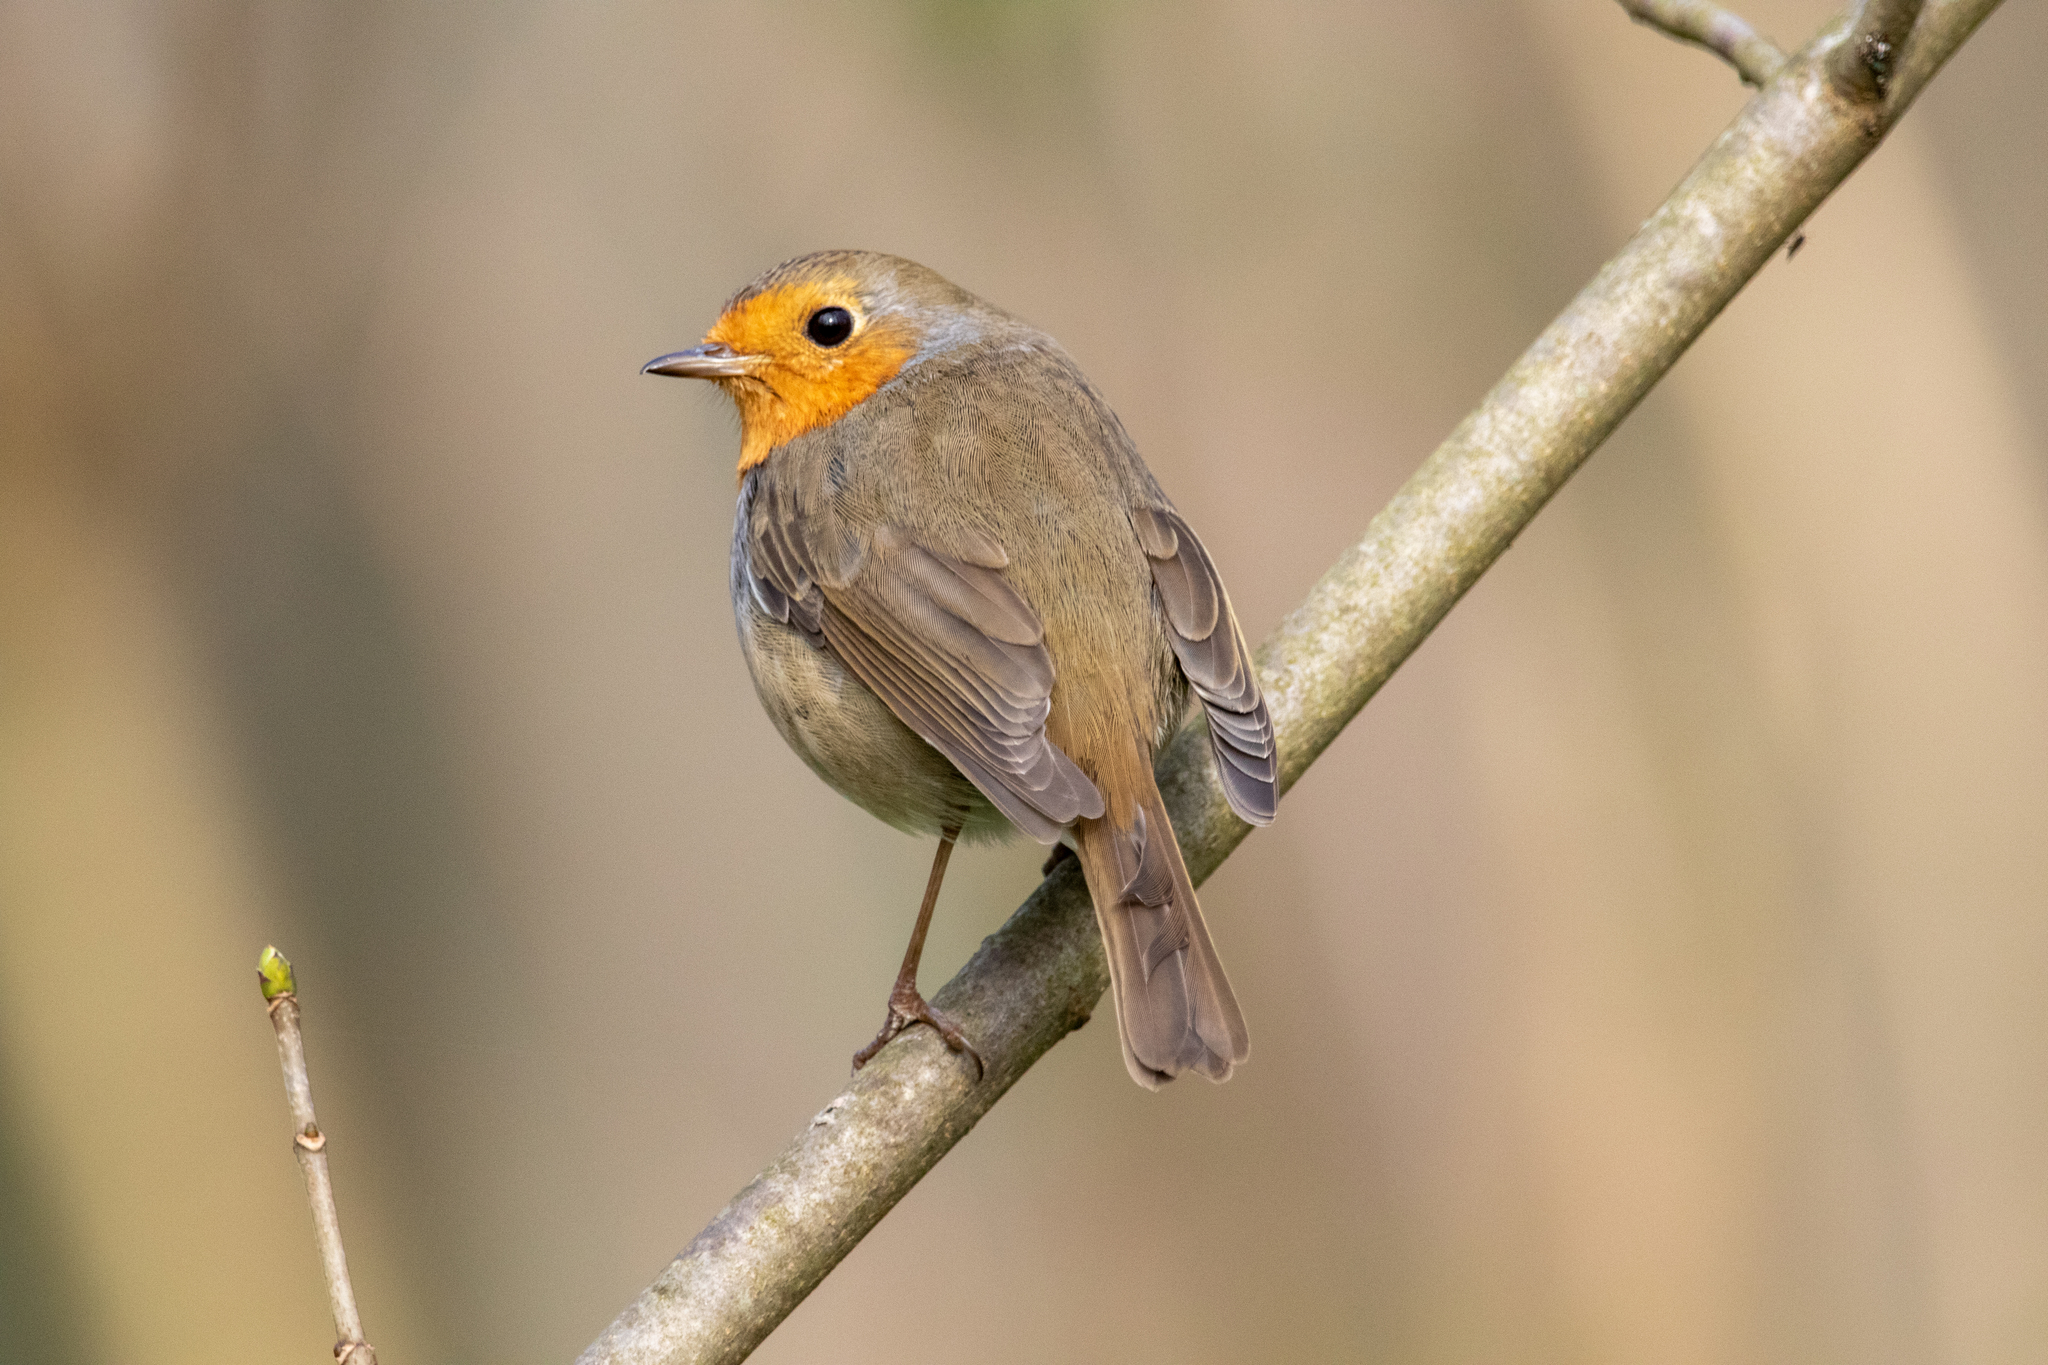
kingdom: Animalia
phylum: Chordata
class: Aves
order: Passeriformes
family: Muscicapidae
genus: Erithacus
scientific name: Erithacus rubecula
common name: European robin
